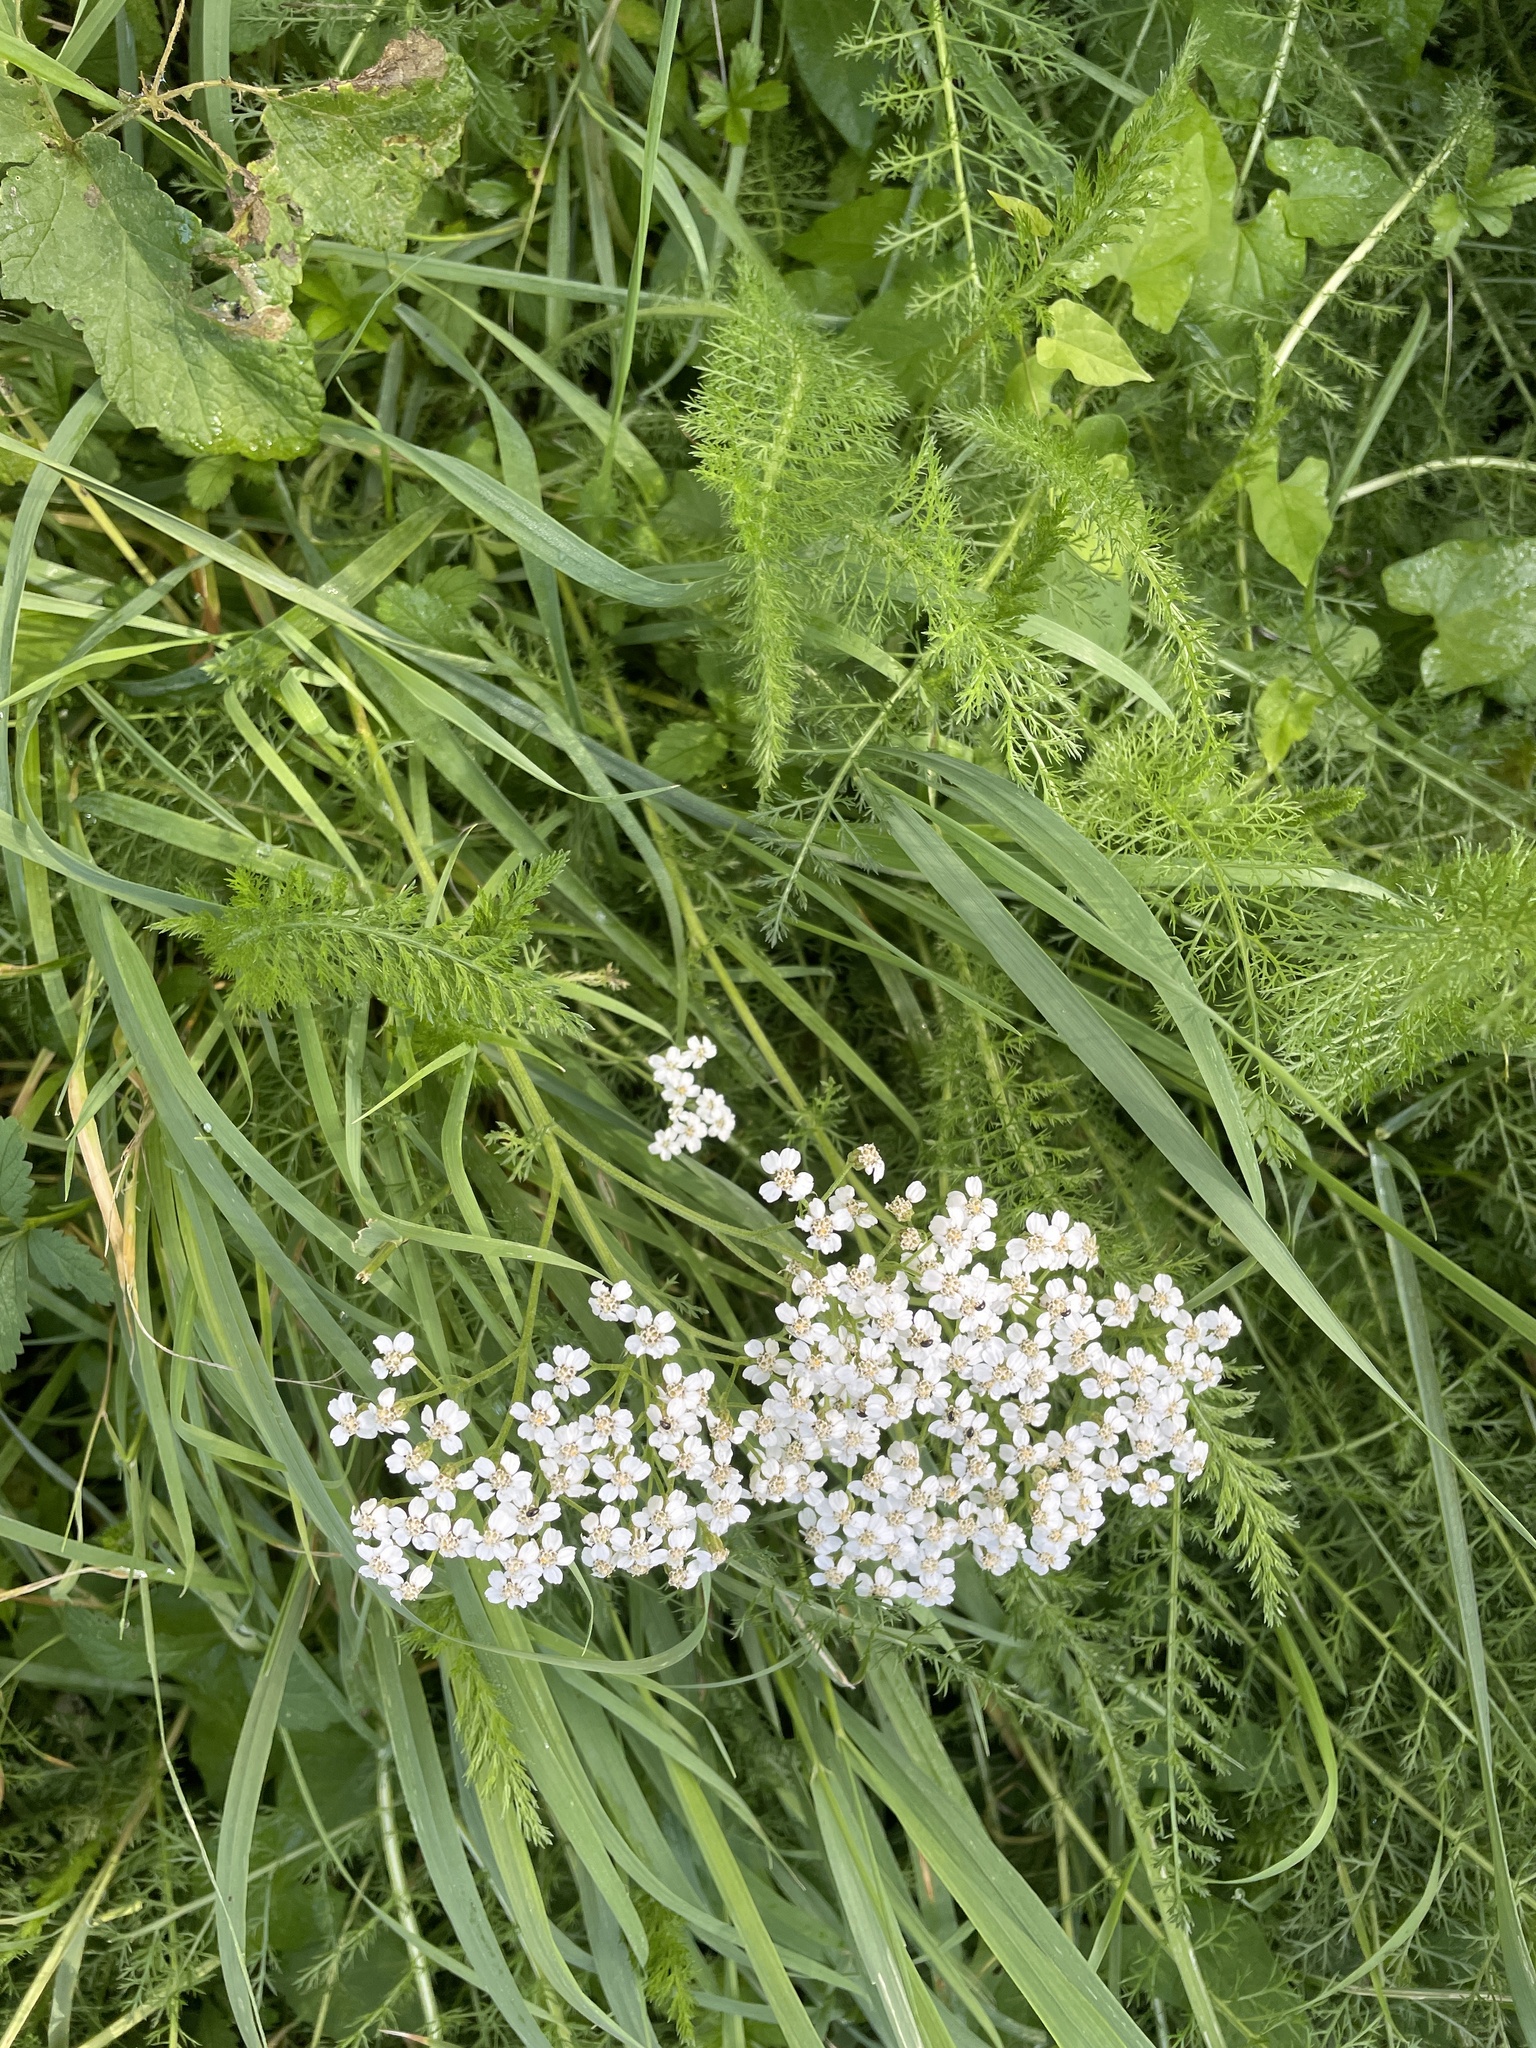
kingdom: Plantae
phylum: Tracheophyta
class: Magnoliopsida
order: Asterales
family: Asteraceae
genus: Achillea
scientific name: Achillea millefolium
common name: Yarrow
